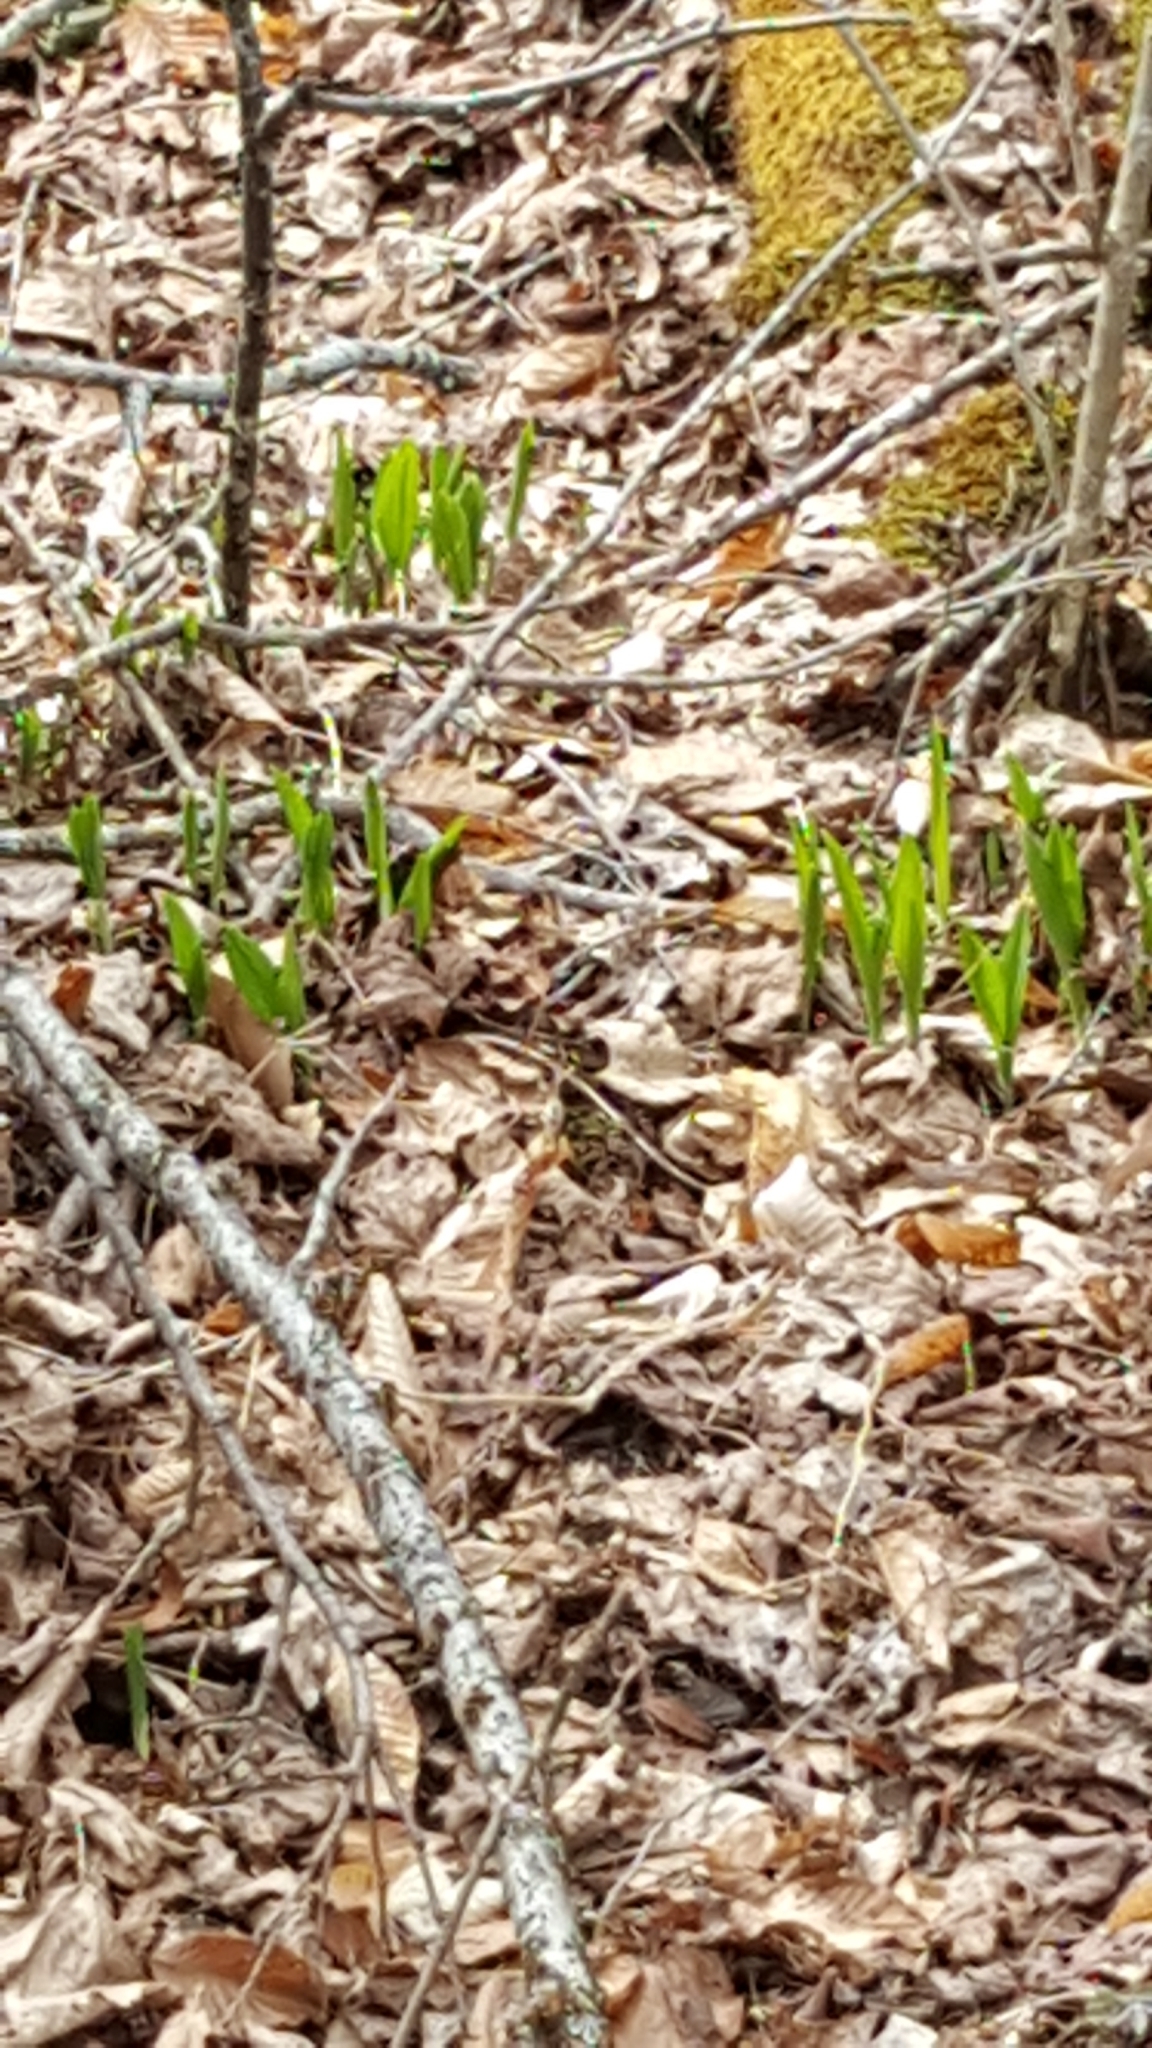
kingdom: Plantae
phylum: Tracheophyta
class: Liliopsida
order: Asparagales
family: Amaryllidaceae
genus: Allium
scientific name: Allium tricoccum
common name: Ramp
